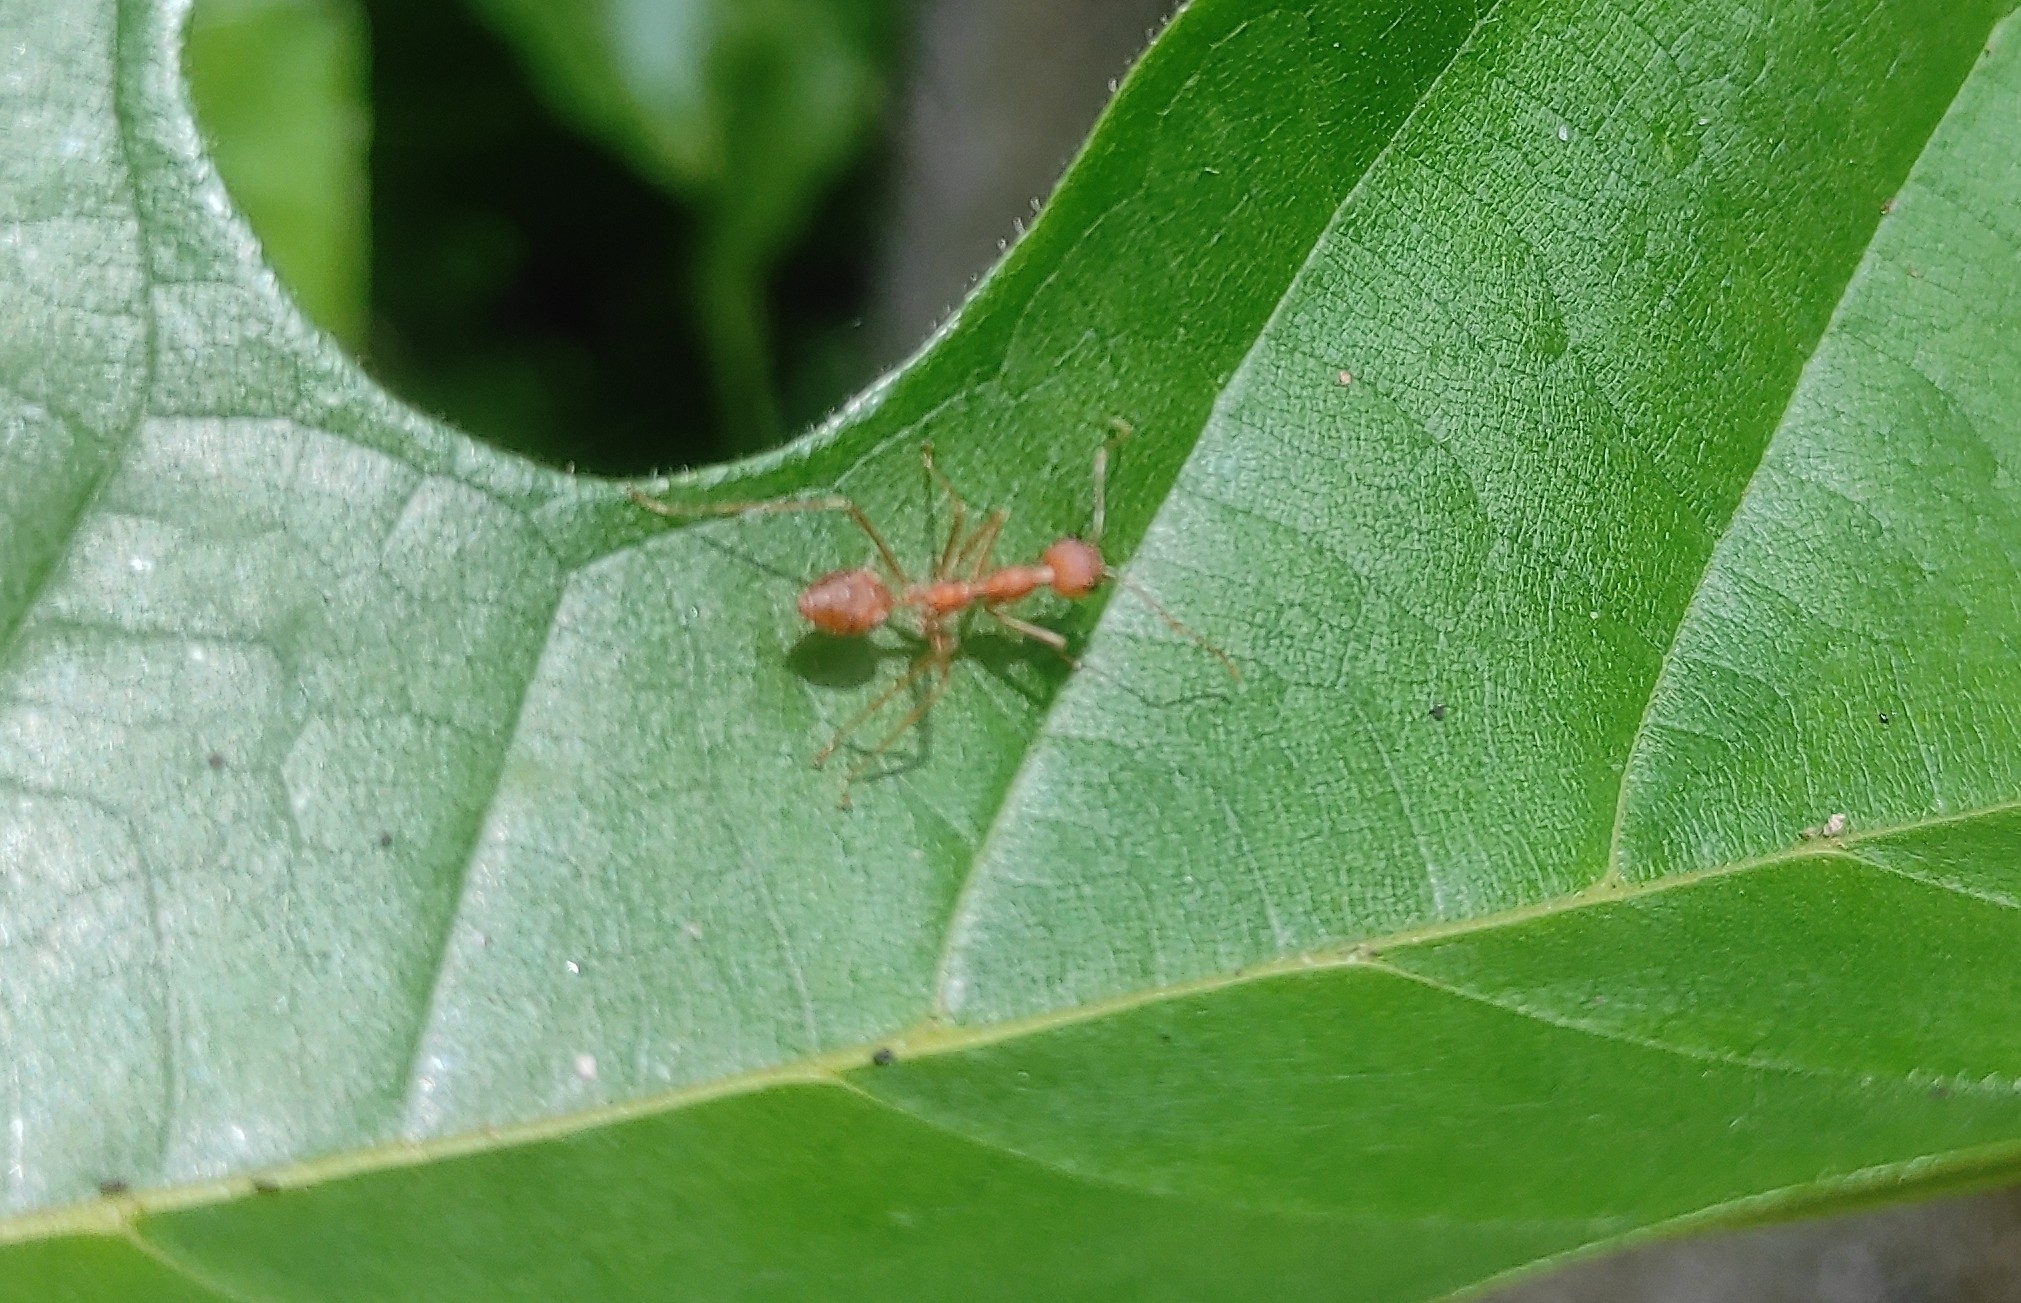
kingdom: Animalia
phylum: Arthropoda
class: Insecta
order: Hymenoptera
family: Formicidae
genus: Oecophylla
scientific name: Oecophylla smaragdina
